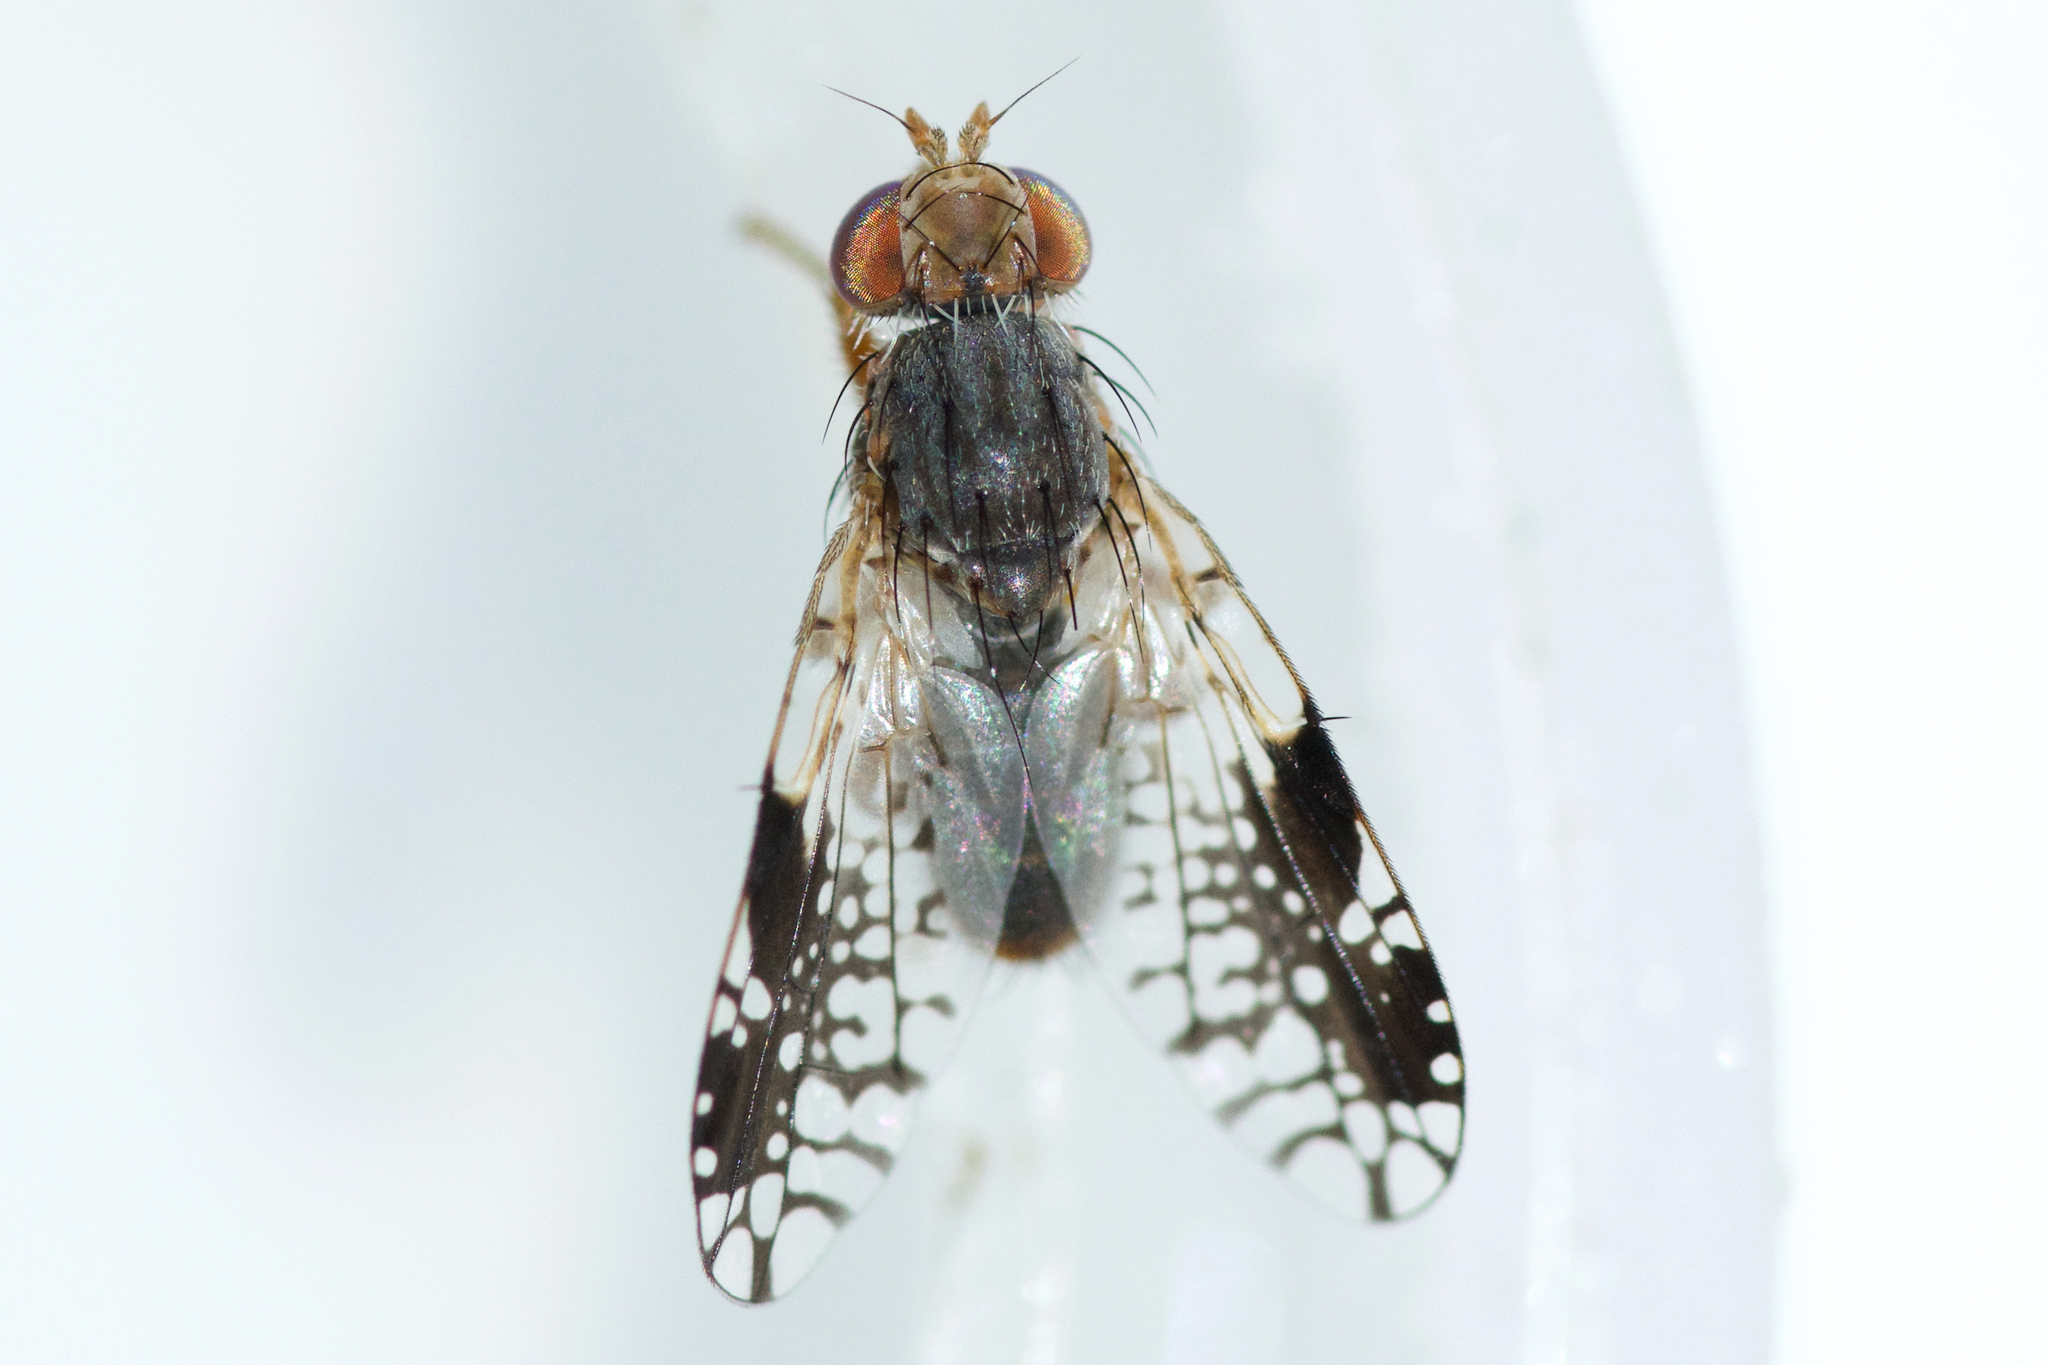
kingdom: Animalia
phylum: Arthropoda
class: Insecta
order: Diptera
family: Tephritidae
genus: Tephritis
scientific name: Tephritis pura
